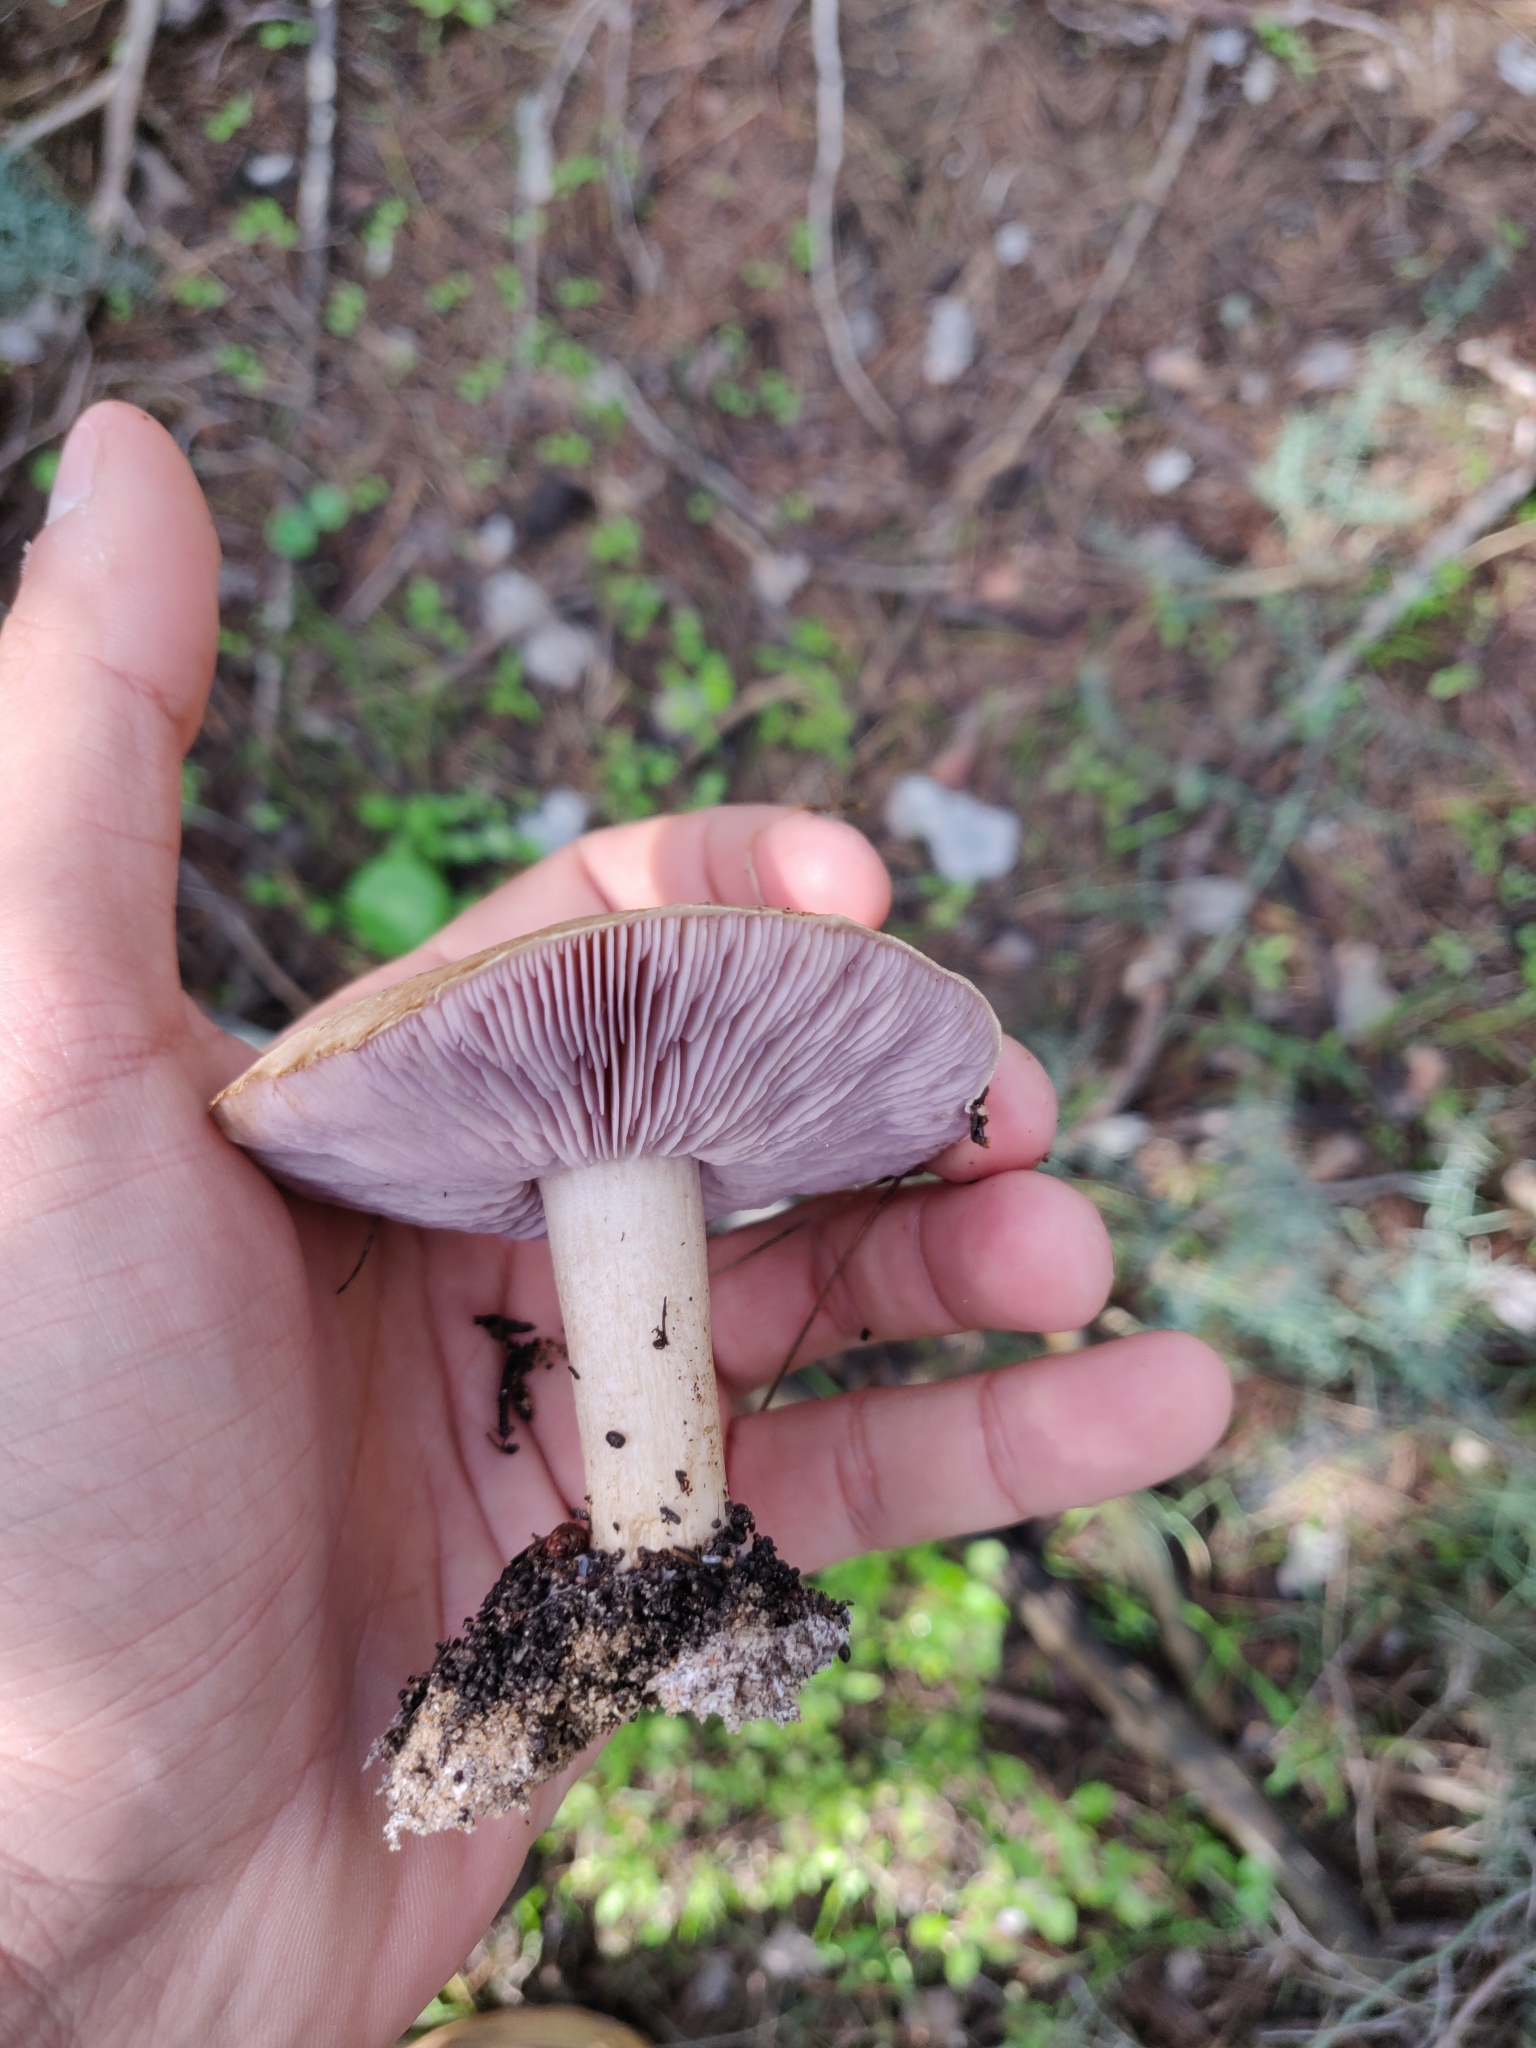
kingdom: Fungi
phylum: Basidiomycota
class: Agaricomycetes
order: Agaricales
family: Tricholomataceae
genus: Tricholosporum
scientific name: Tricholosporum tetragonosporum
